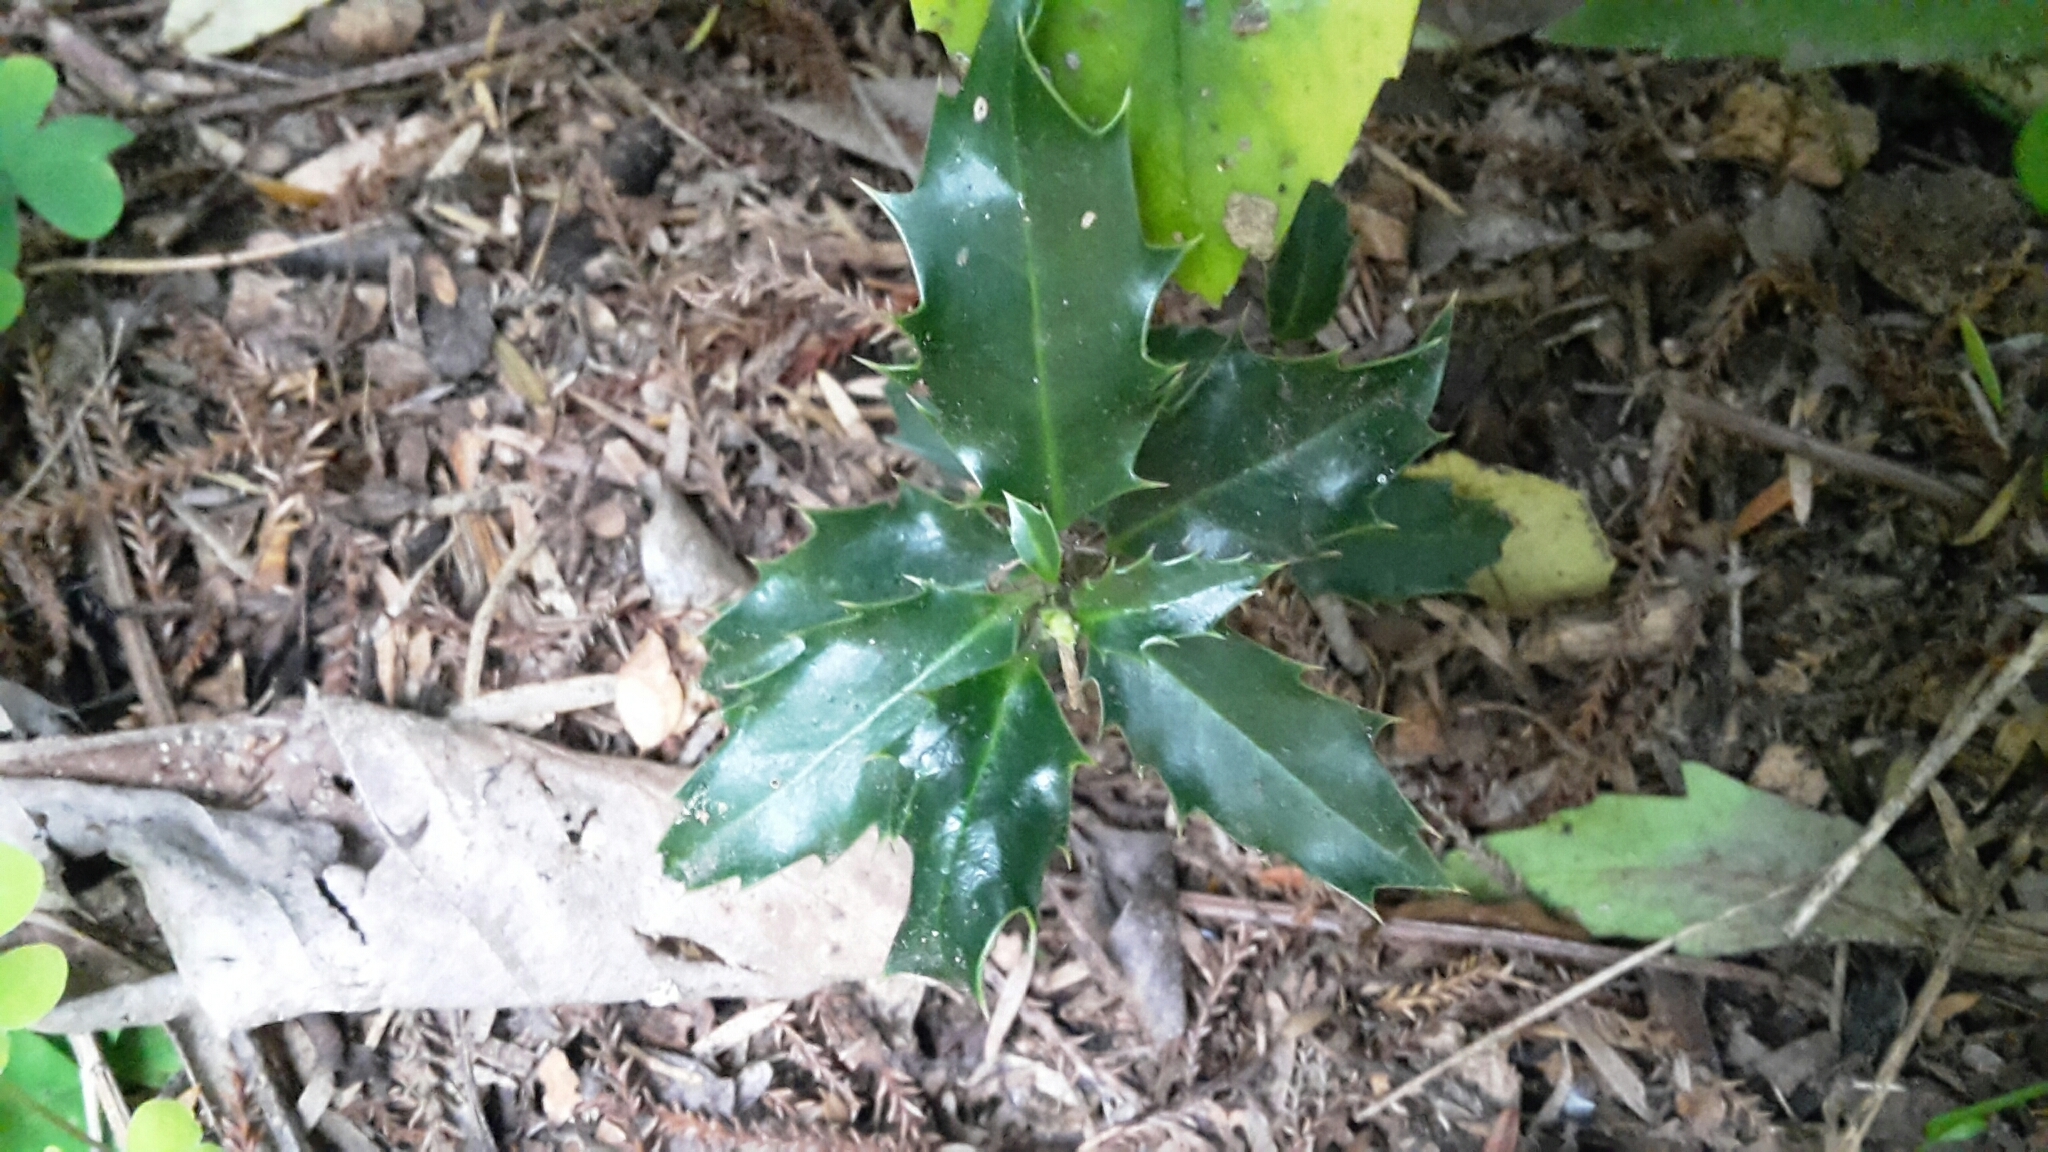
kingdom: Plantae
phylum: Tracheophyta
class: Magnoliopsida
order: Aquifoliales
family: Aquifoliaceae
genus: Ilex
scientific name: Ilex aquifolium
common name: English holly
